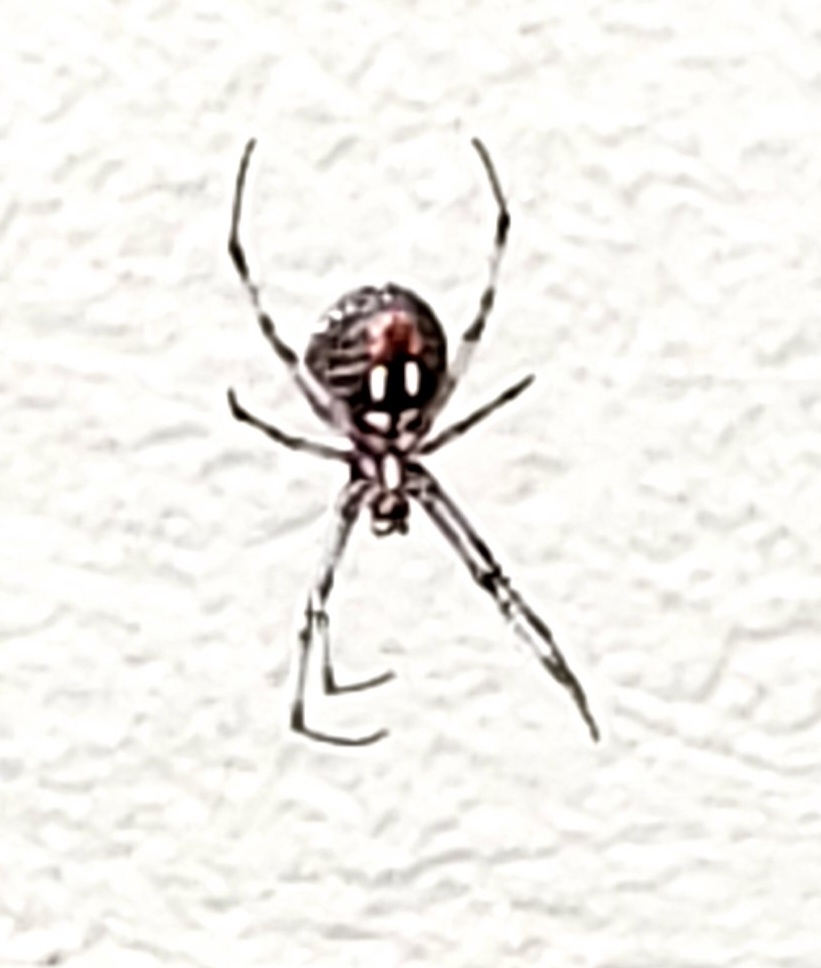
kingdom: Animalia
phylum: Arthropoda
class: Arachnida
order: Araneae
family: Araneidae
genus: Neoscona
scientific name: Neoscona oaxacensis
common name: Orb weavers
